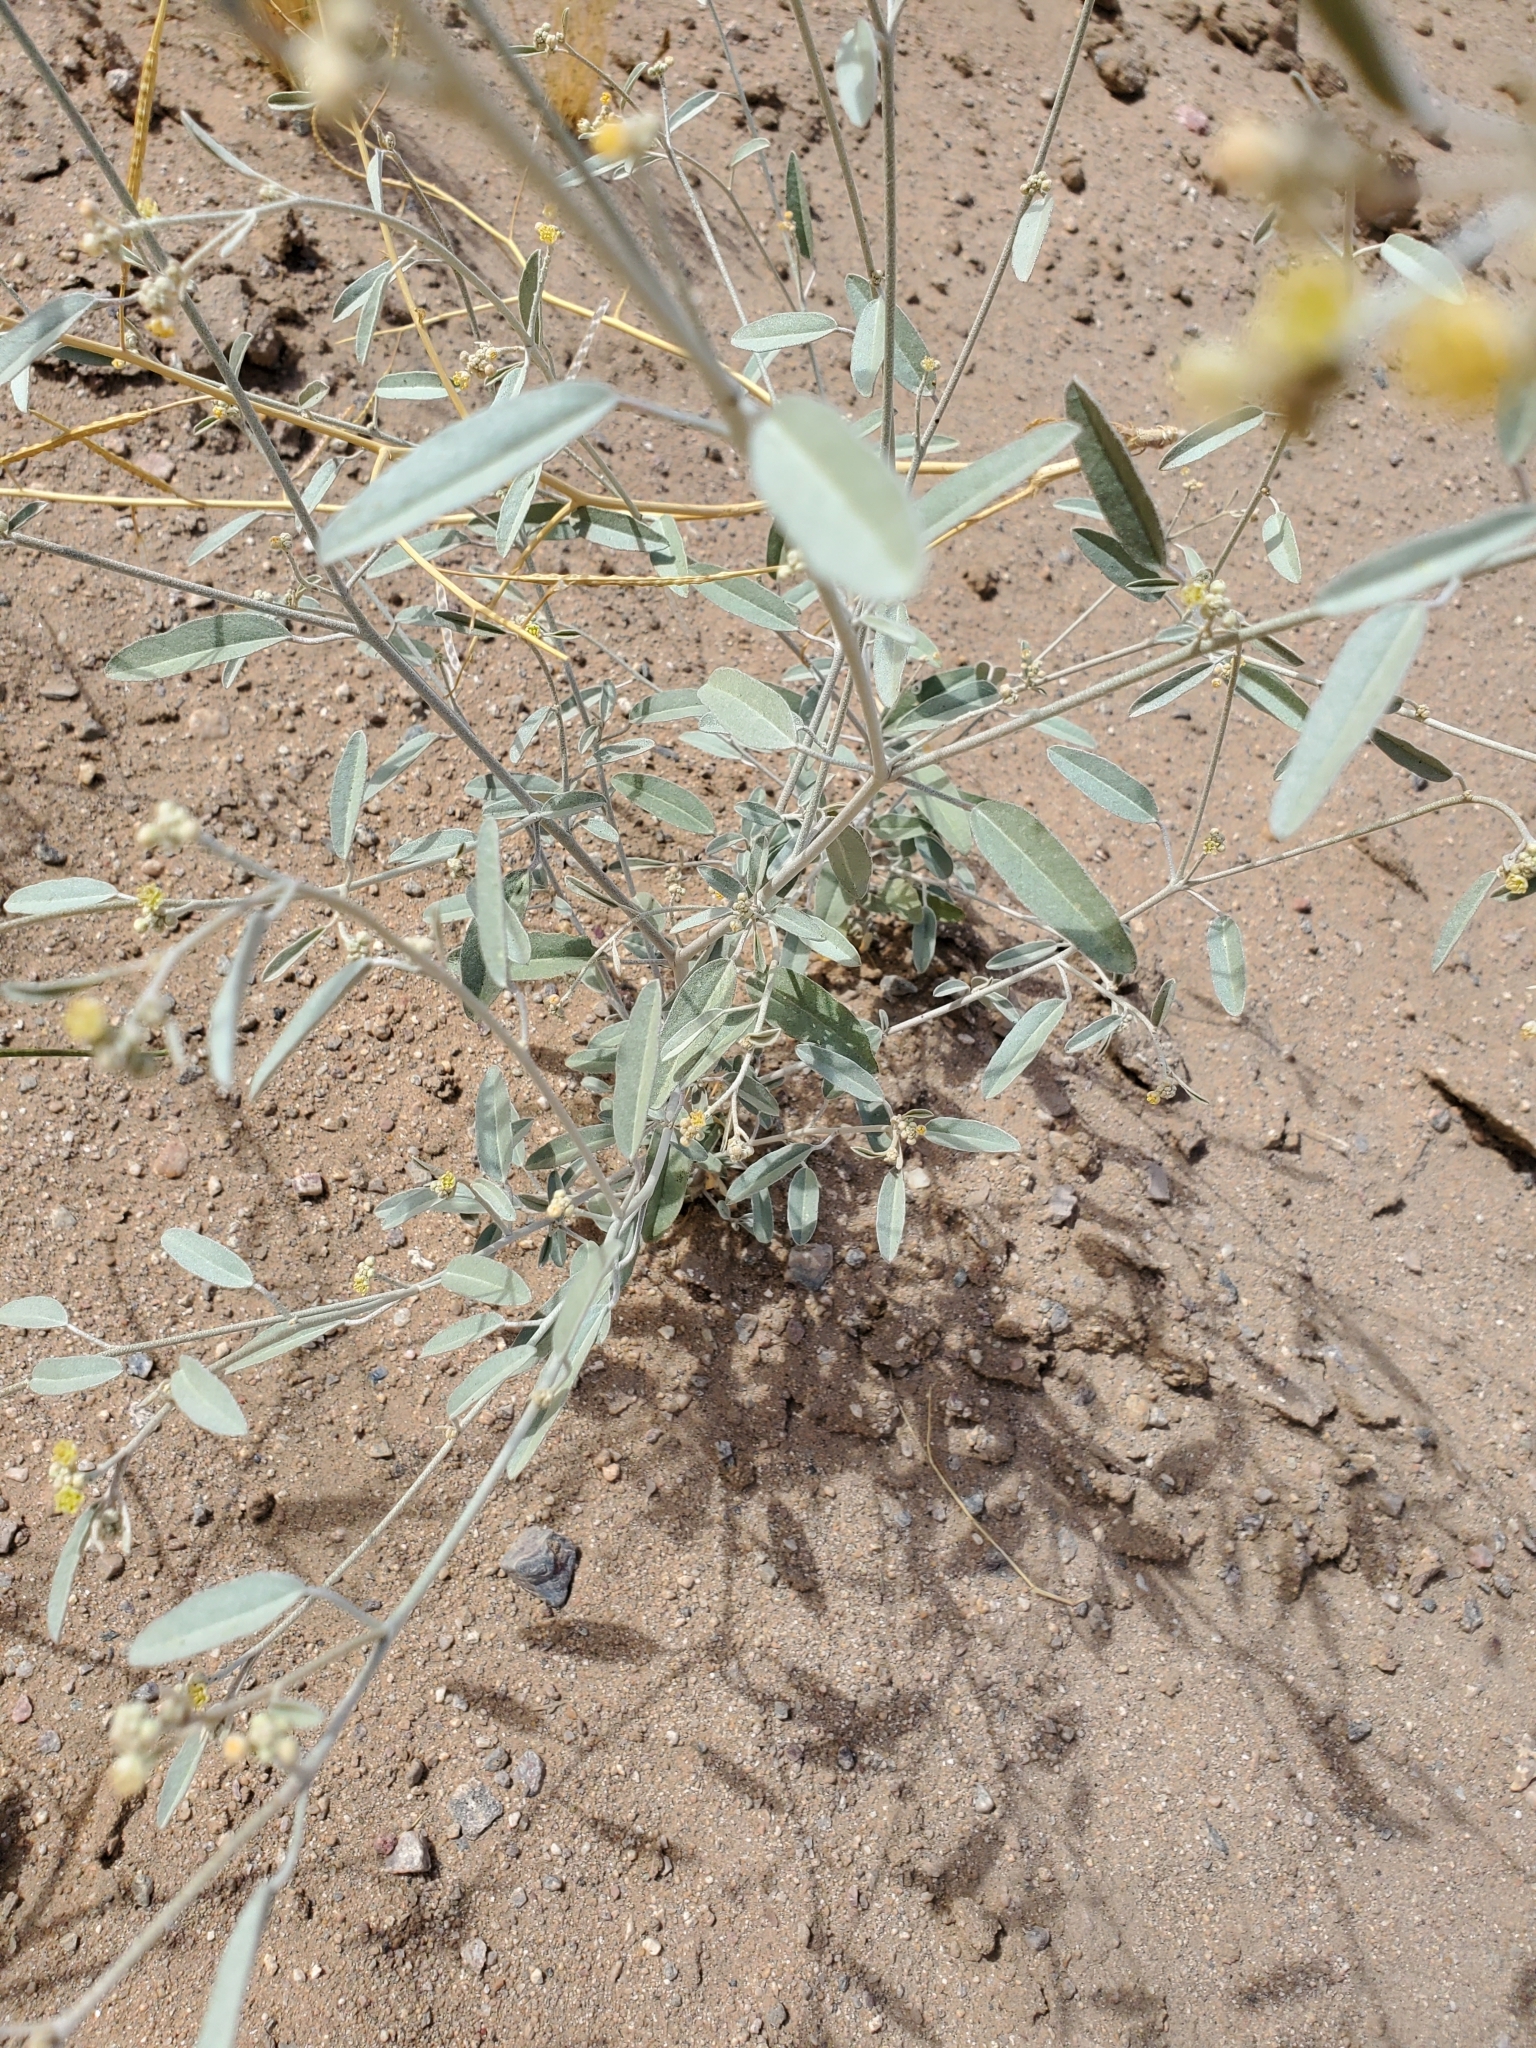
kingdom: Plantae
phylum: Tracheophyta
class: Magnoliopsida
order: Malpighiales
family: Euphorbiaceae
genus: Croton
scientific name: Croton californicus
